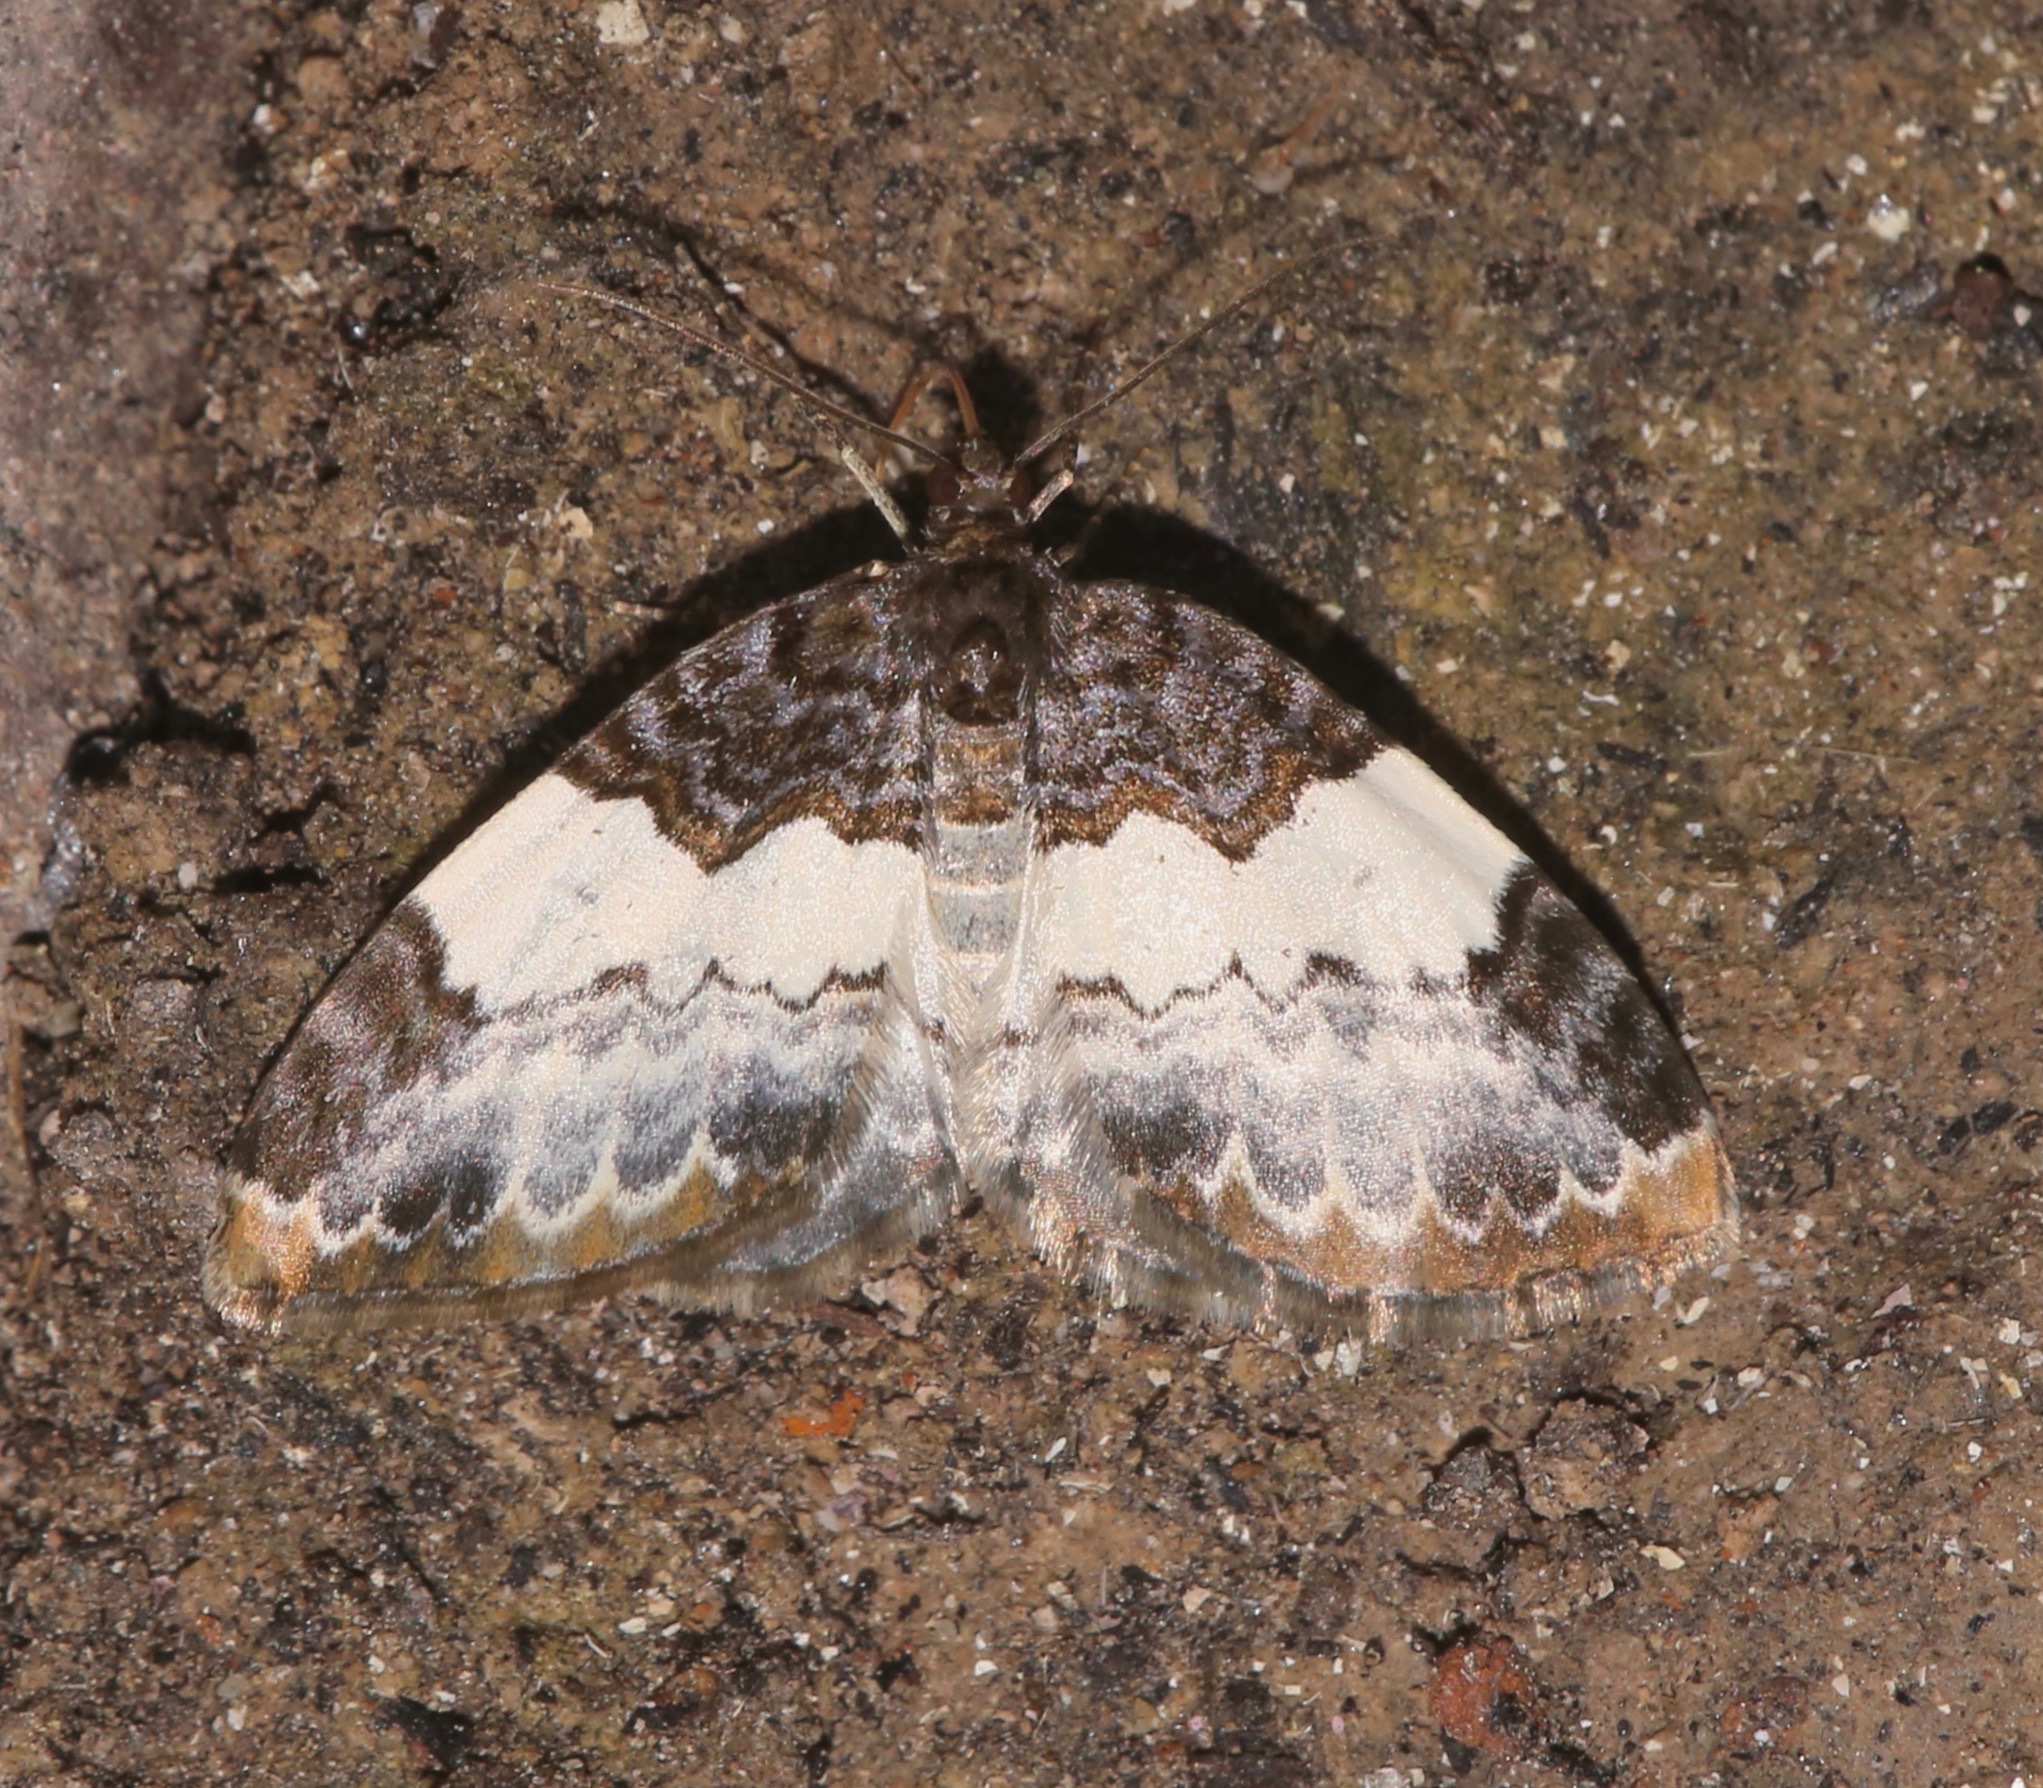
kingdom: Animalia
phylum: Arthropoda
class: Insecta
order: Lepidoptera
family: Geometridae
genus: Mesoleuca
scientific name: Mesoleuca ruficillata
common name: White-ribboned carpet moth
